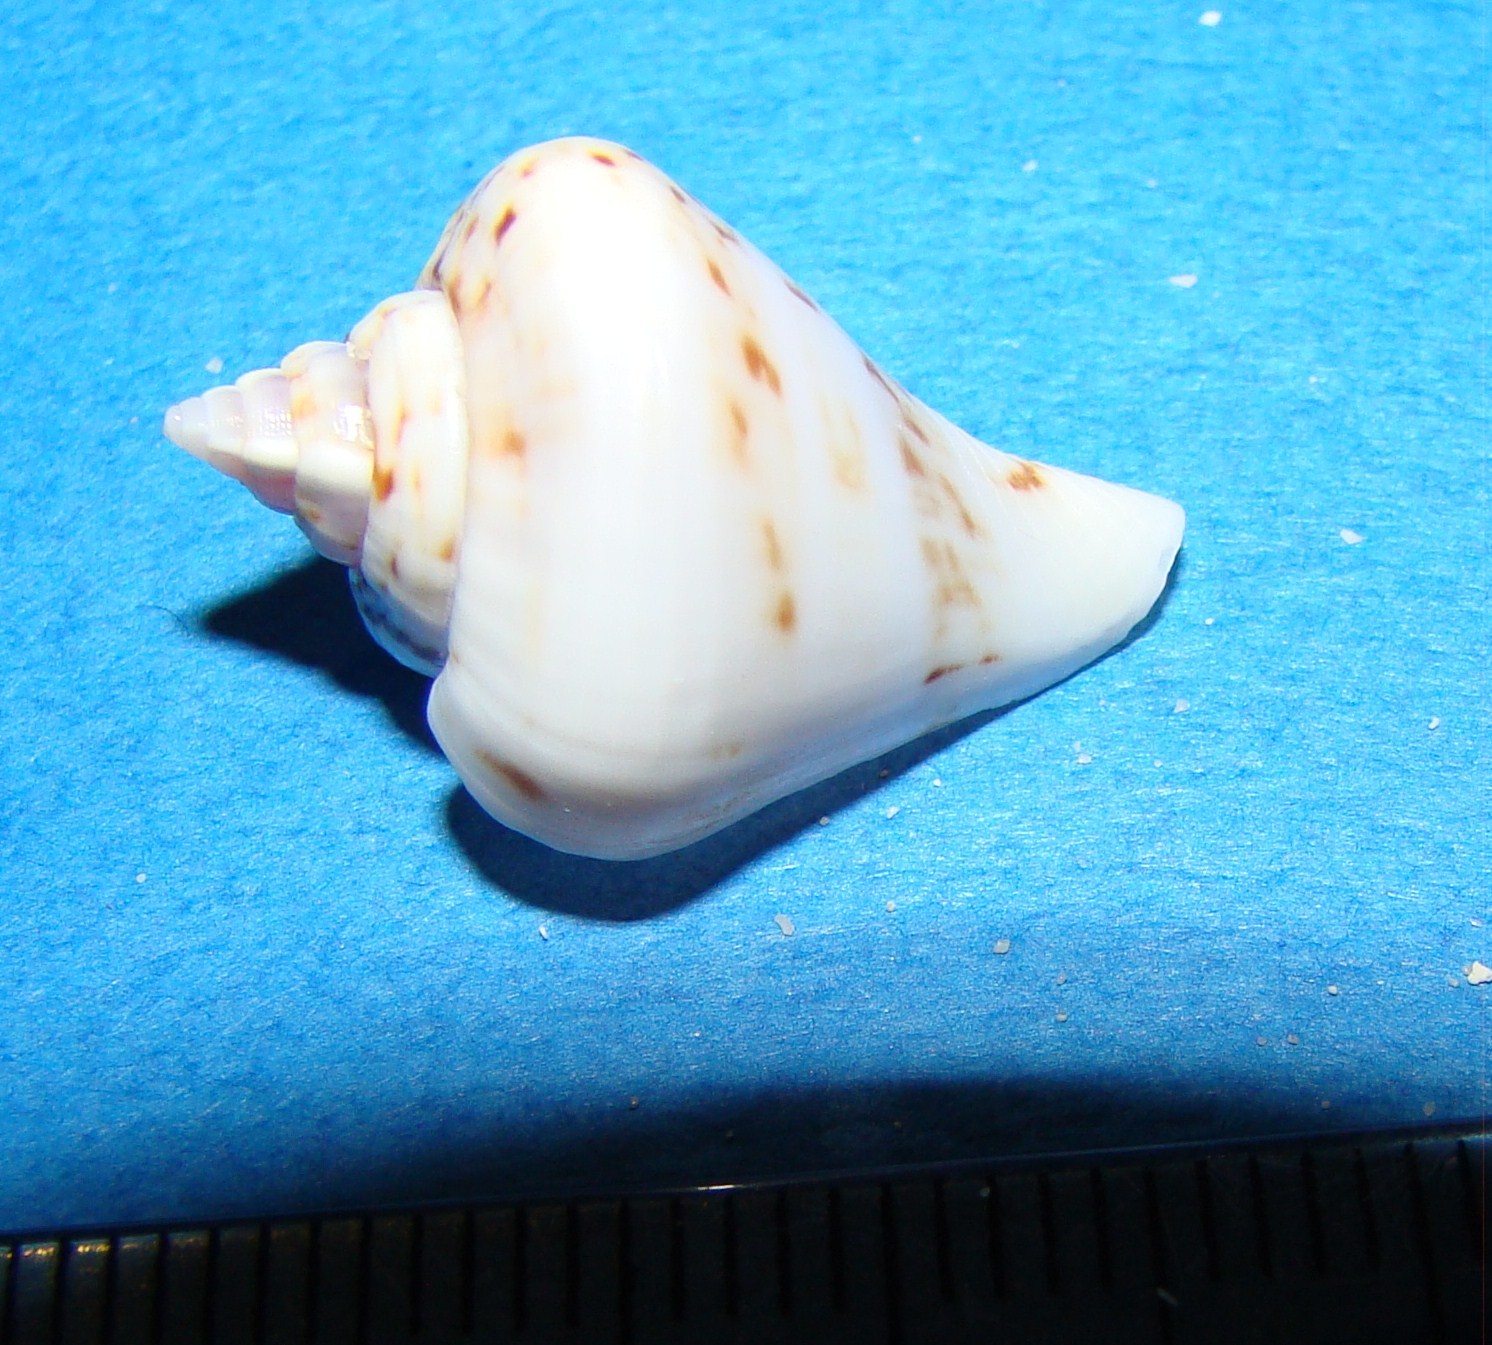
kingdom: Animalia
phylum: Mollusca
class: Gastropoda
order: Littorinimorpha
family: Strombidae
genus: Gibberulus
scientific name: Gibberulus gibberulus
